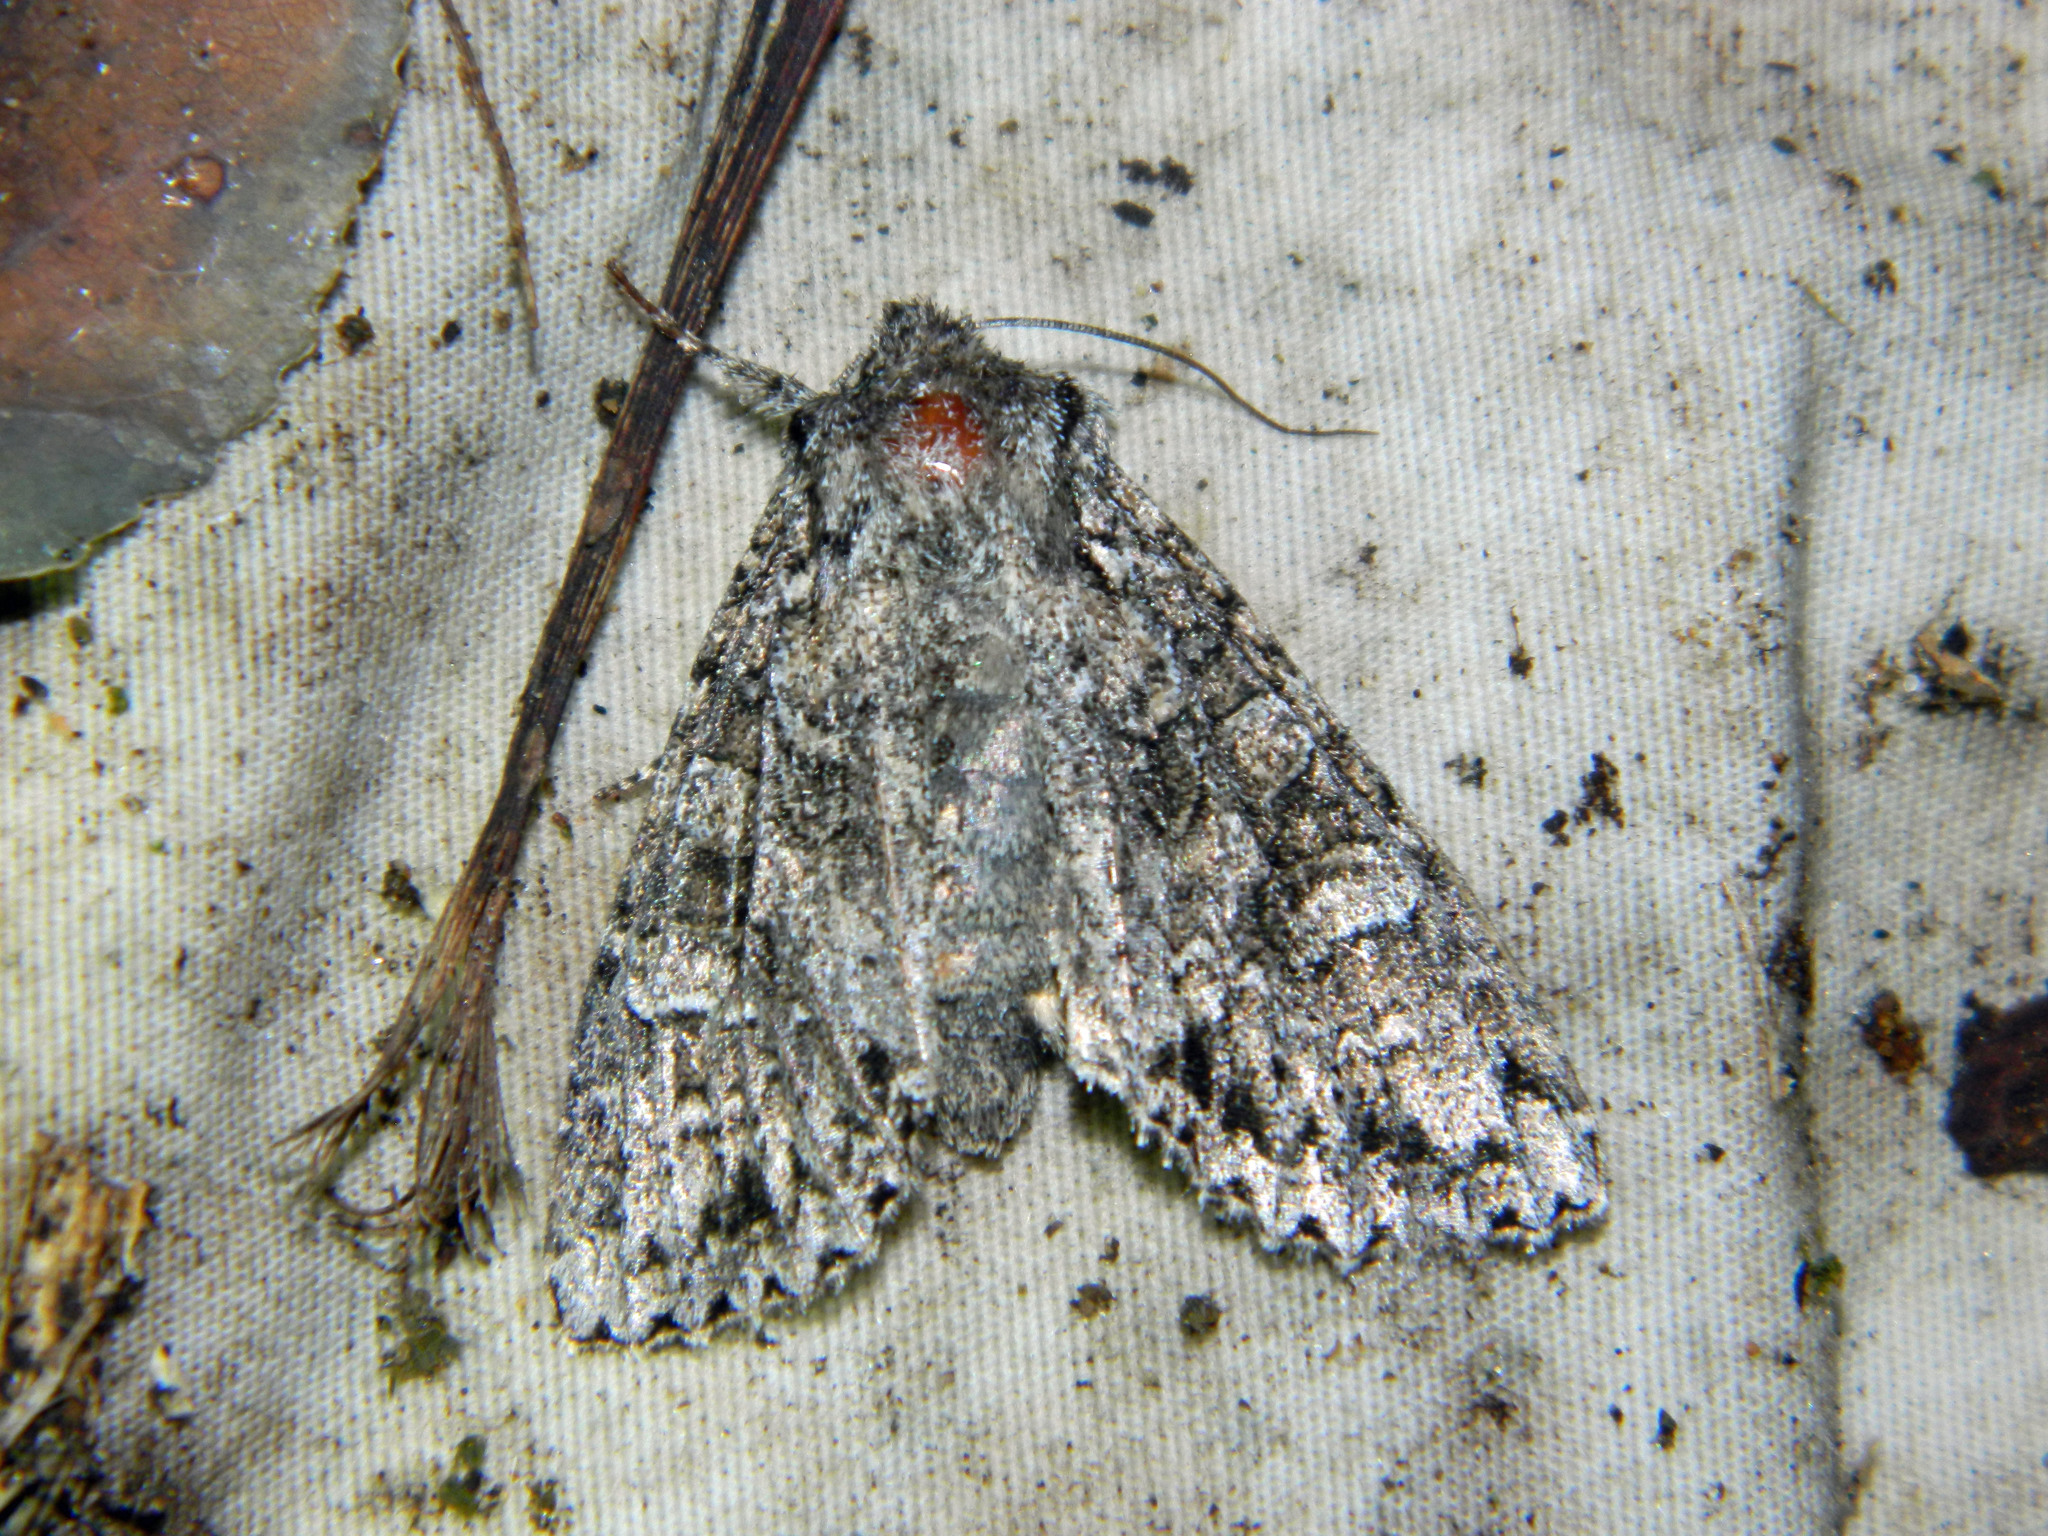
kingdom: Animalia
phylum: Arthropoda
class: Insecta
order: Lepidoptera
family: Noctuidae
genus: Polia
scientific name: Polia imbrifera
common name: Cloudy arches moth
